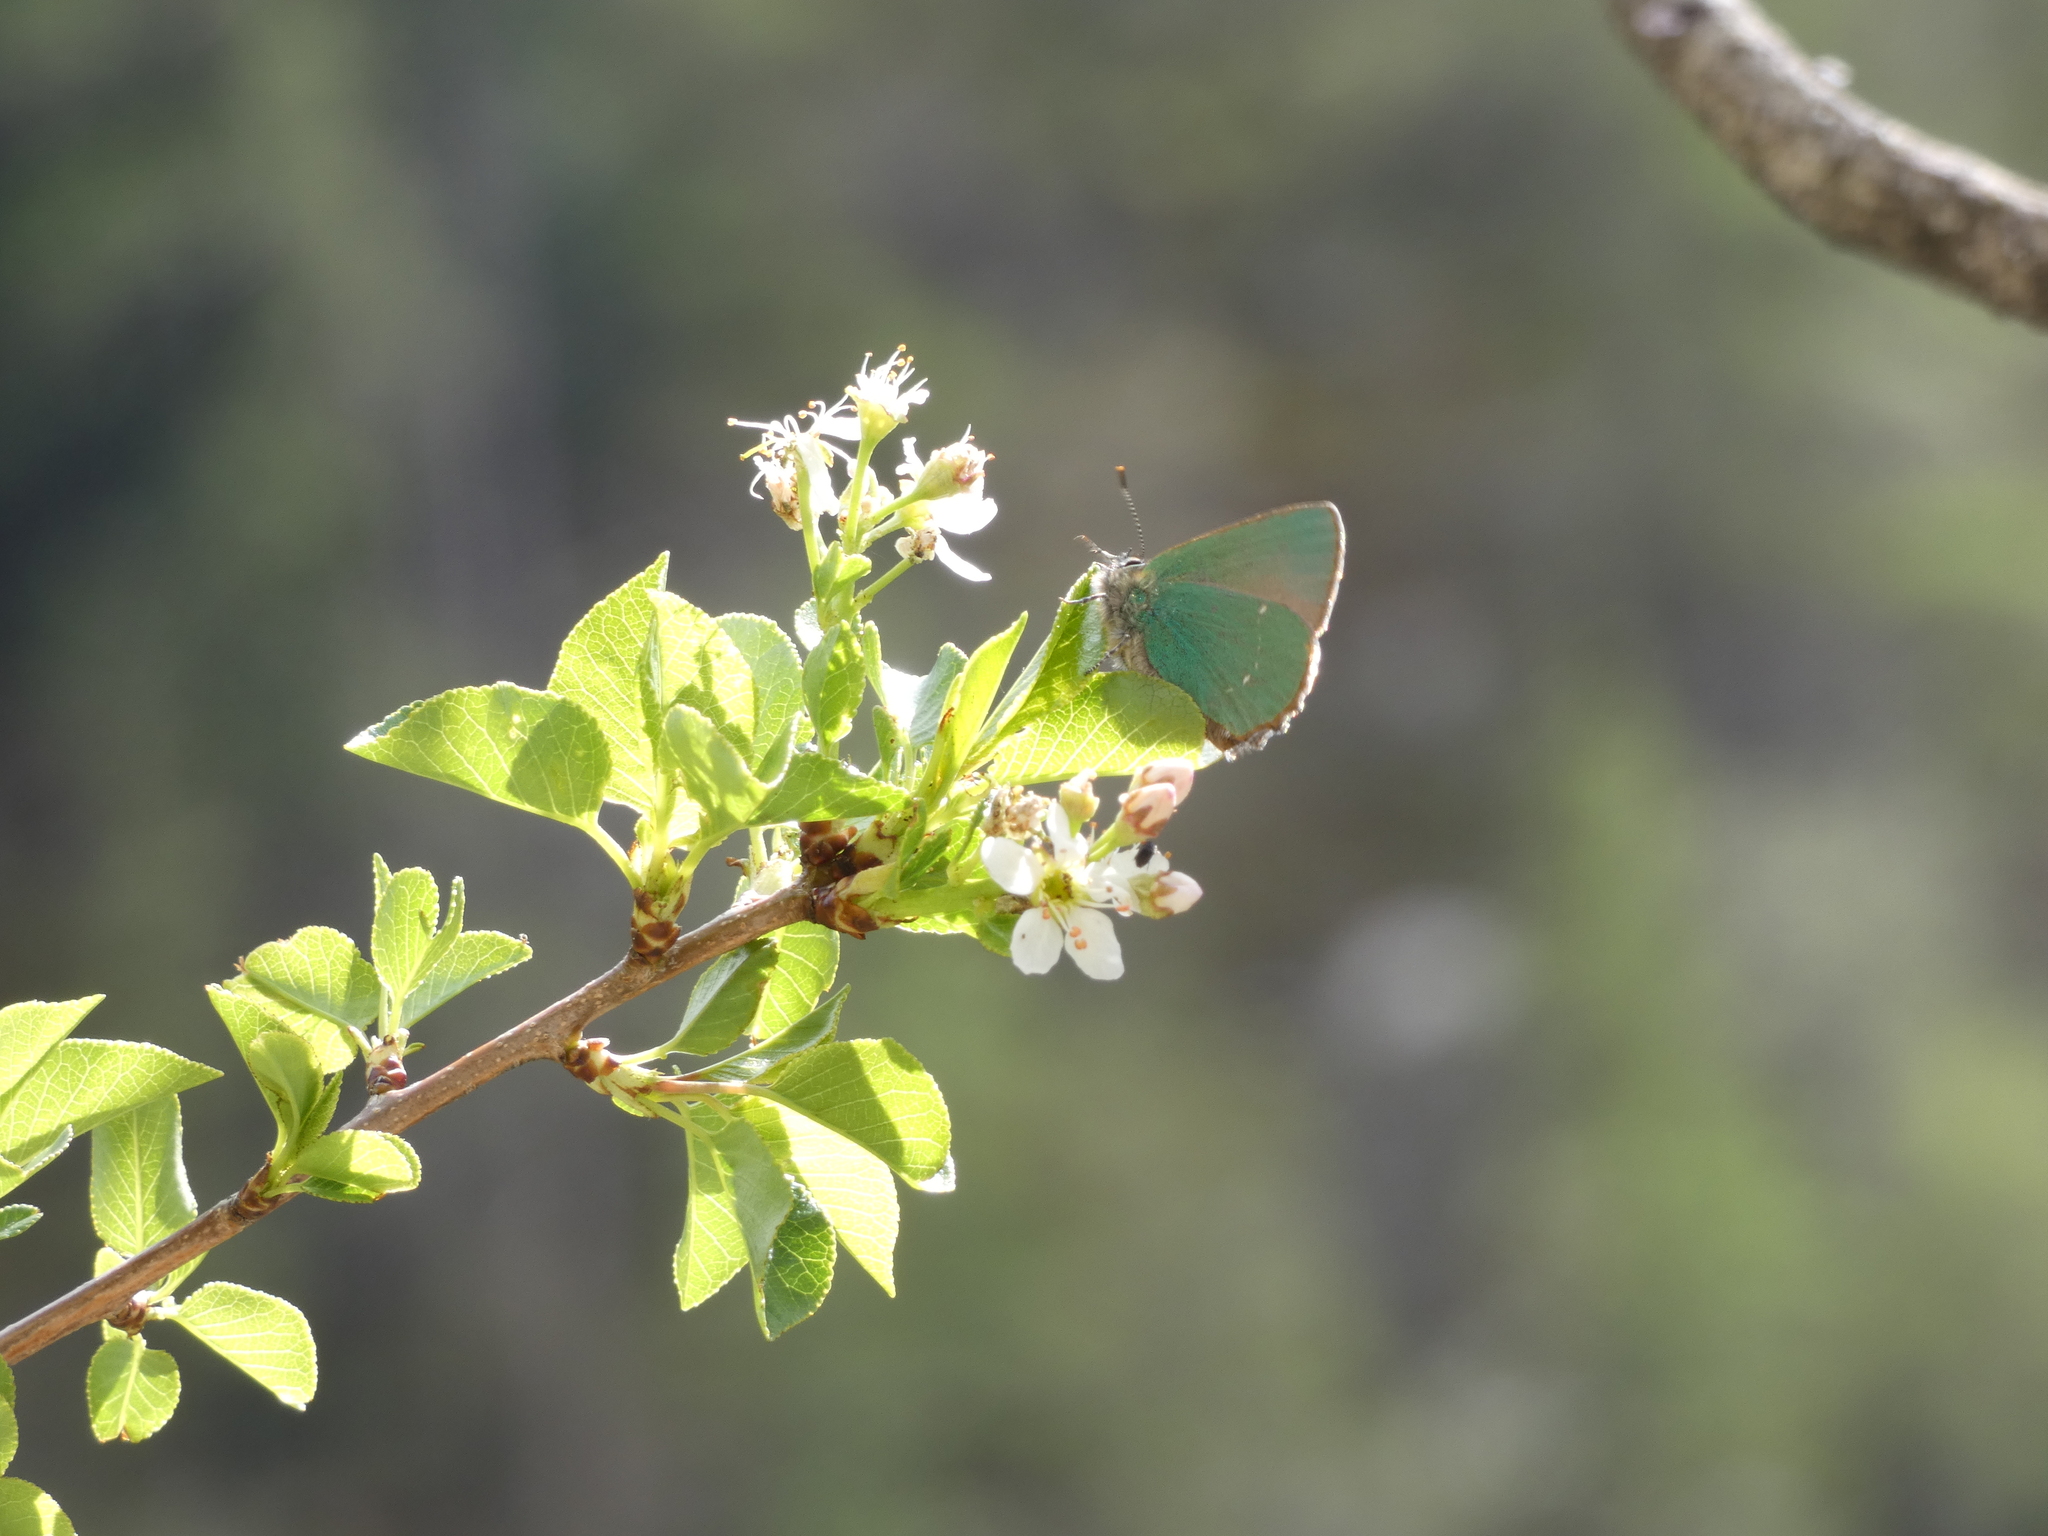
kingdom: Animalia
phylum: Arthropoda
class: Insecta
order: Lepidoptera
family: Lycaenidae
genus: Callophrys
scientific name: Callophrys rubi
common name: Green hairstreak
